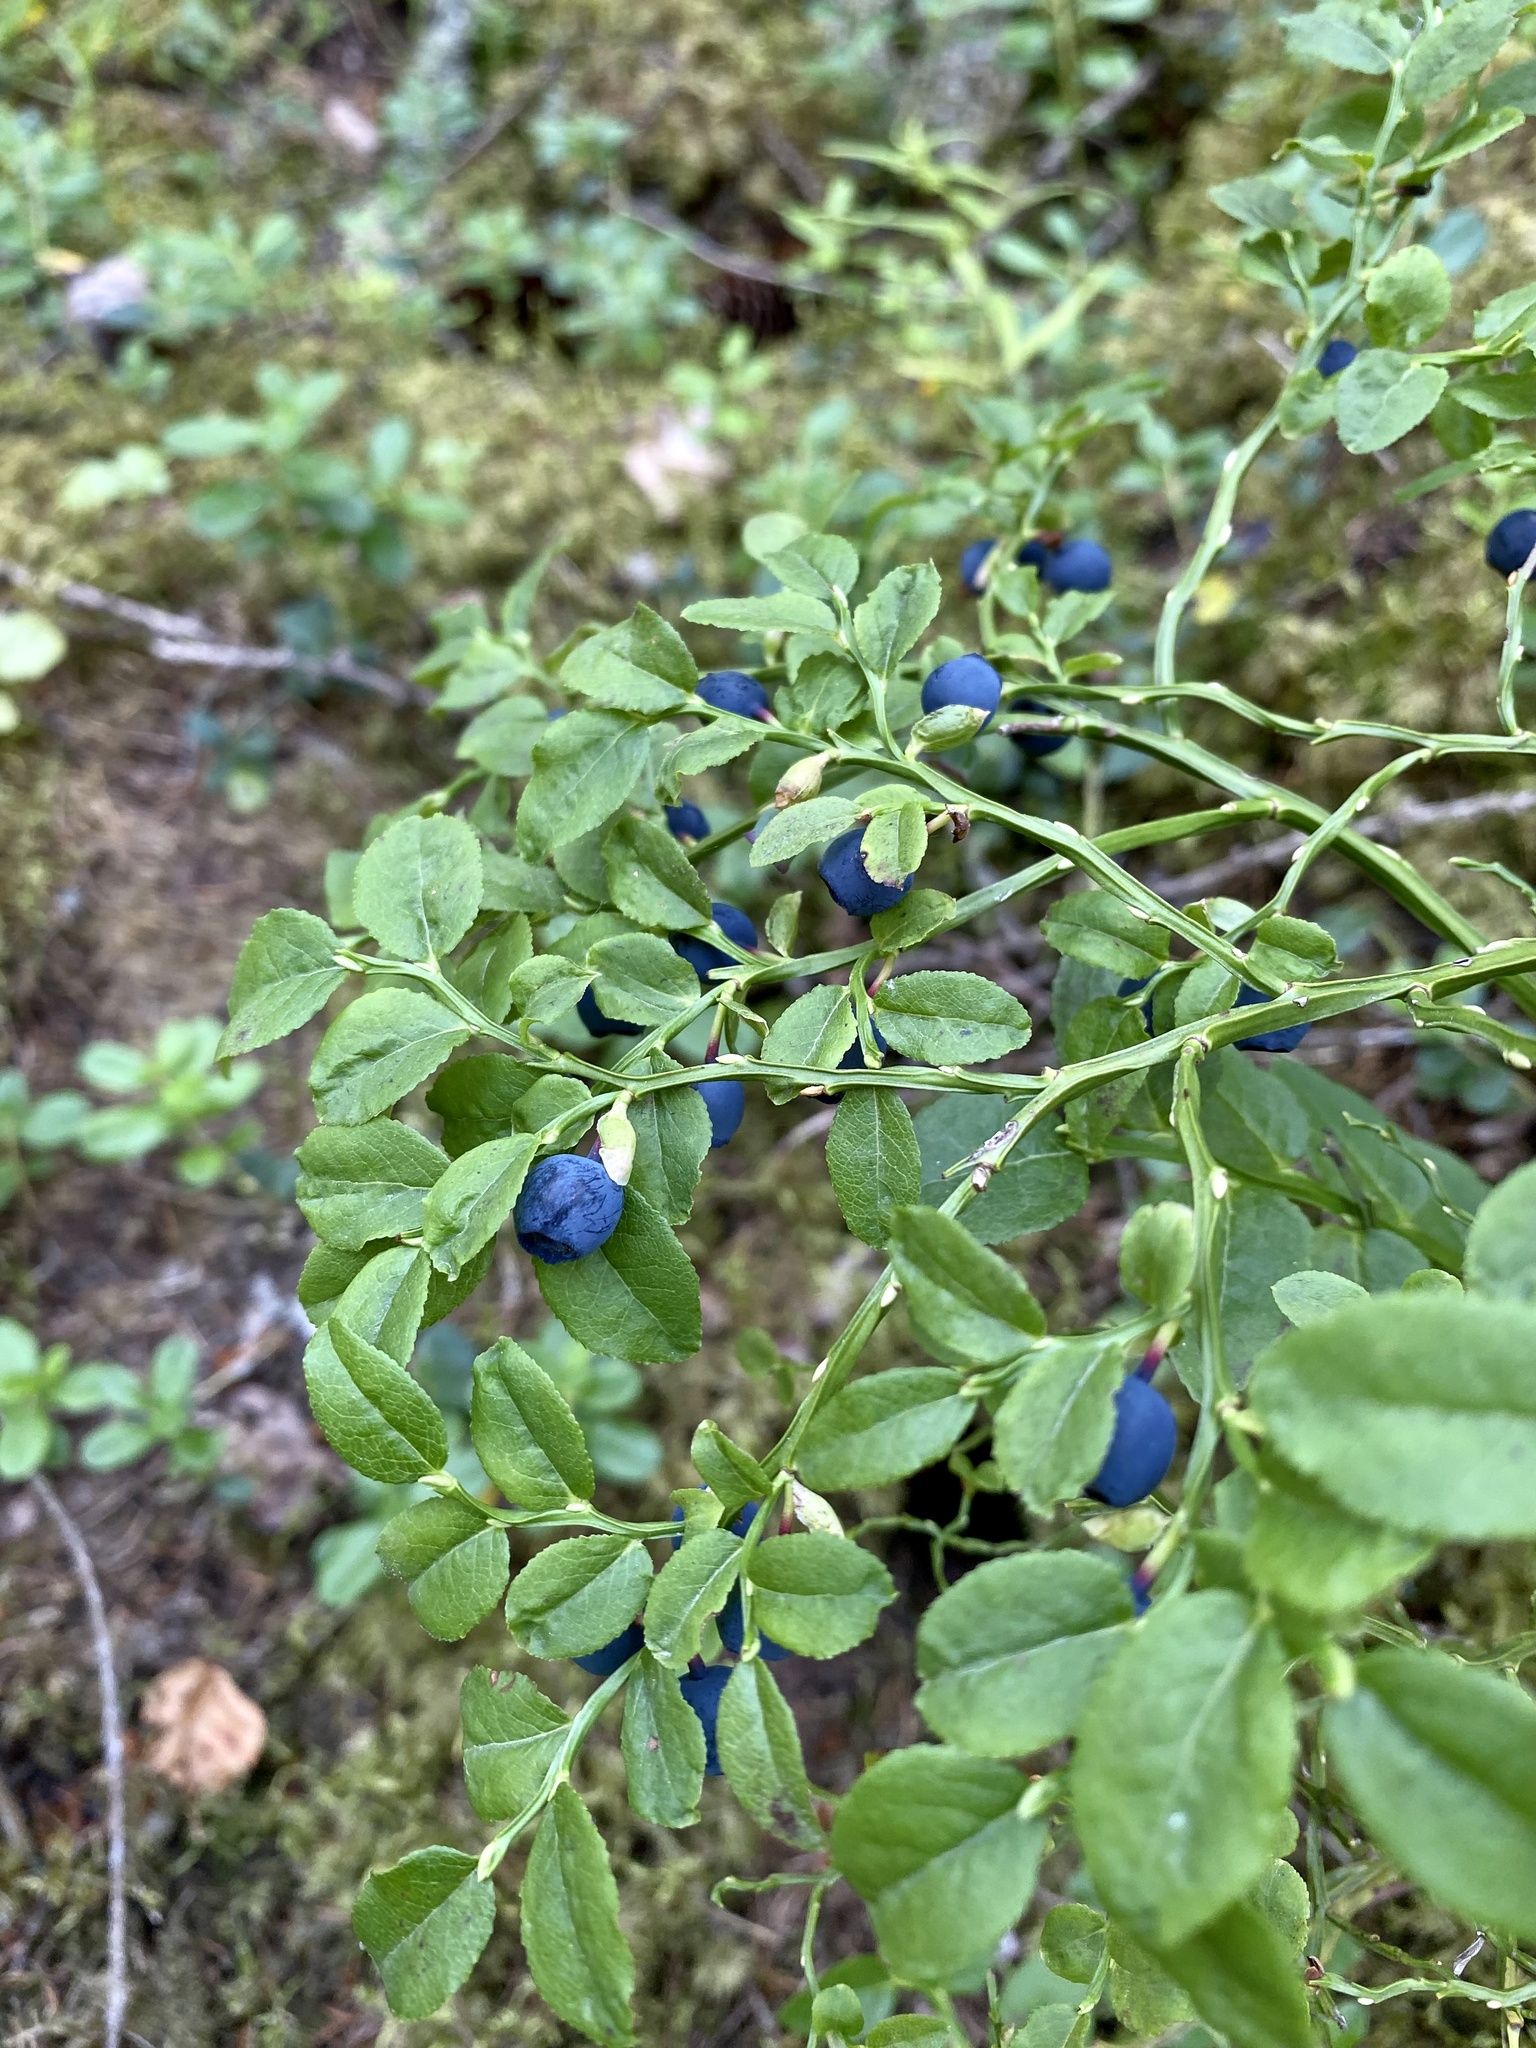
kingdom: Plantae
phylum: Tracheophyta
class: Magnoliopsida
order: Ericales
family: Ericaceae
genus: Vaccinium
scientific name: Vaccinium myrtillus
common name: Bilberry
